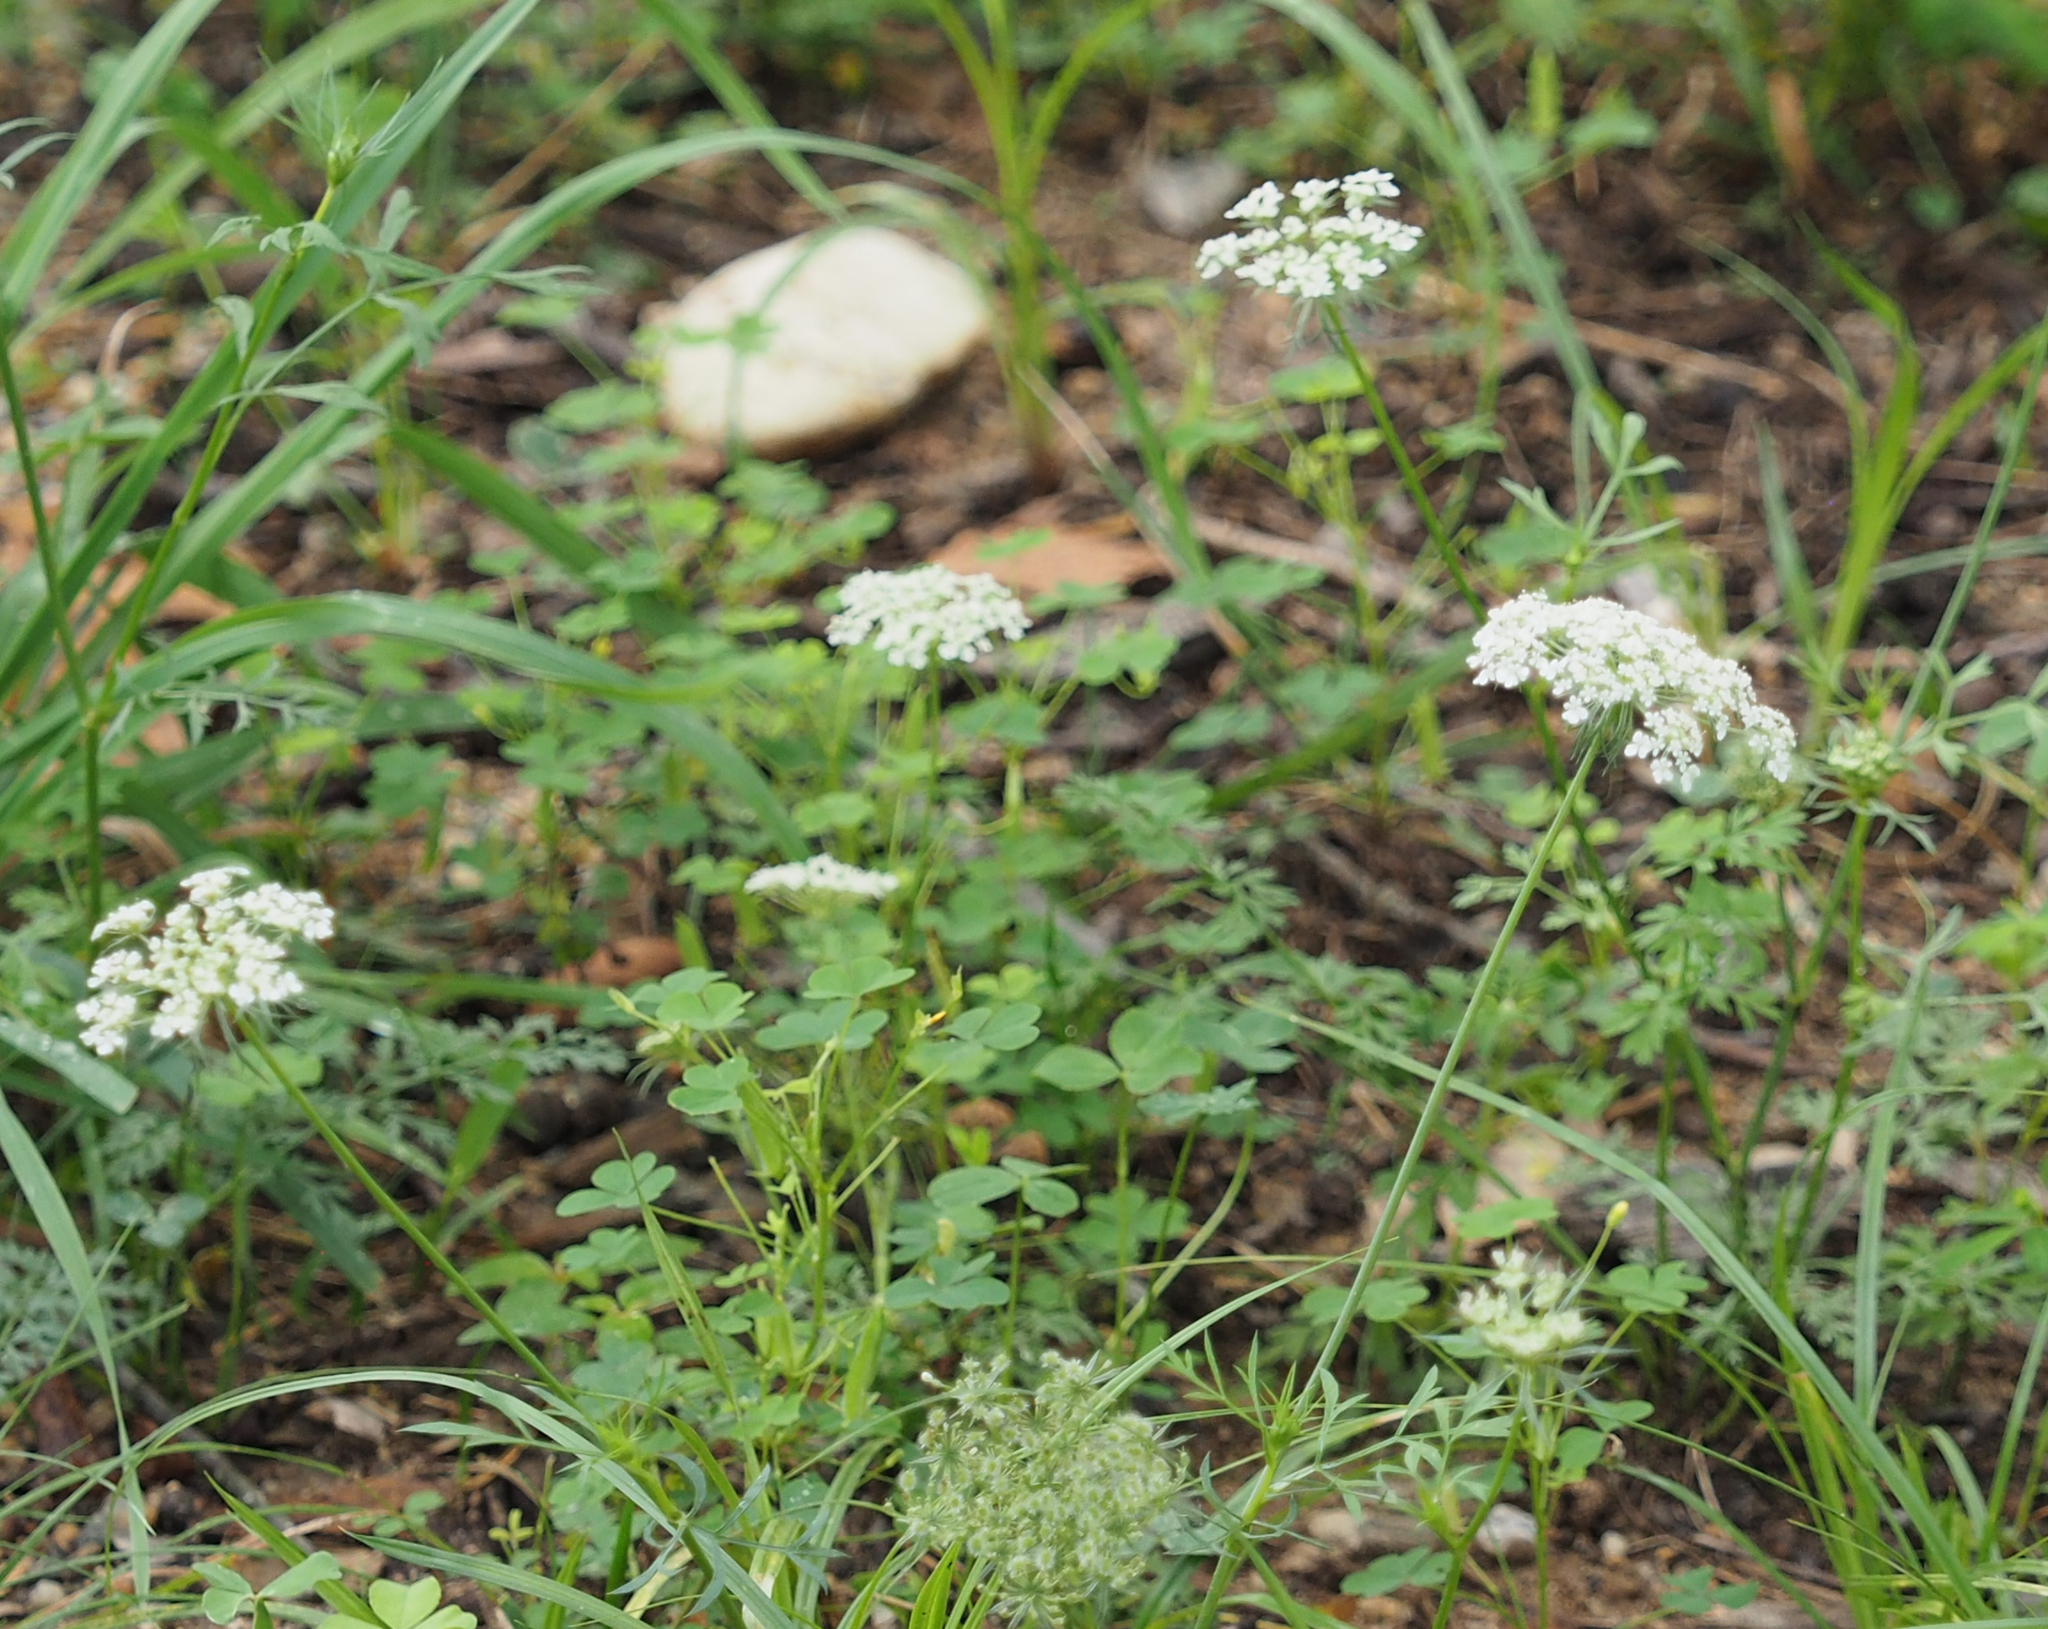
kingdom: Plantae
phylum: Tracheophyta
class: Magnoliopsida
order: Apiales
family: Apiaceae
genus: Daucus
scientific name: Daucus carota
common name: Wild carrot
